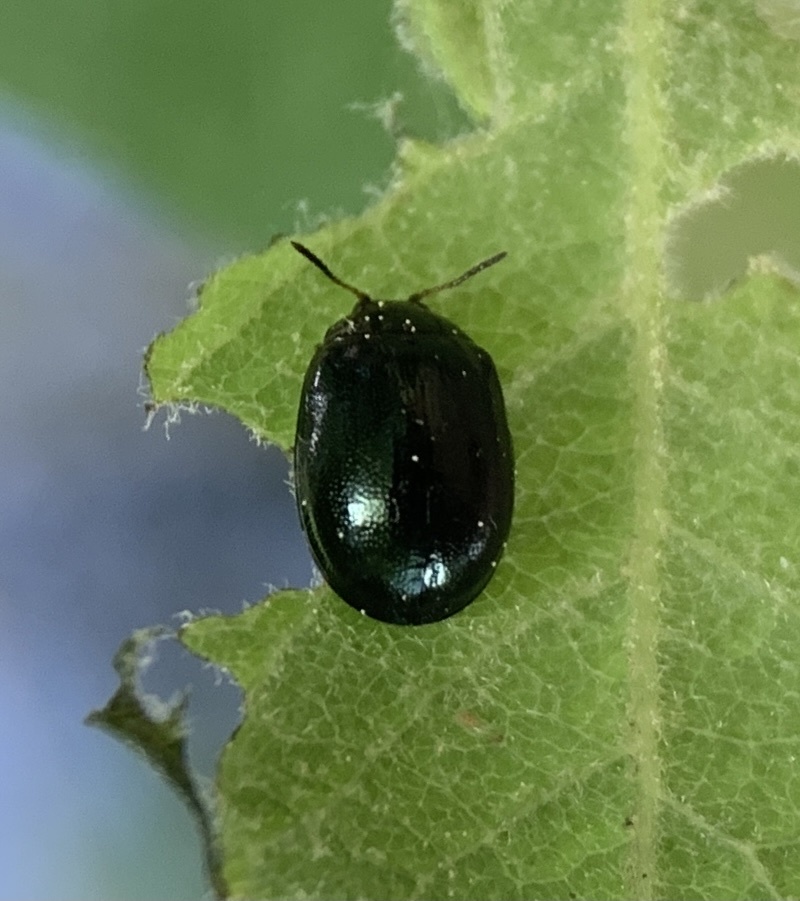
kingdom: Animalia
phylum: Arthropoda
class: Insecta
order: Coleoptera
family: Chrysomelidae
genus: Plagiodera
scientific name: Plagiodera versicolora
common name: Imported willow leaf beetle
